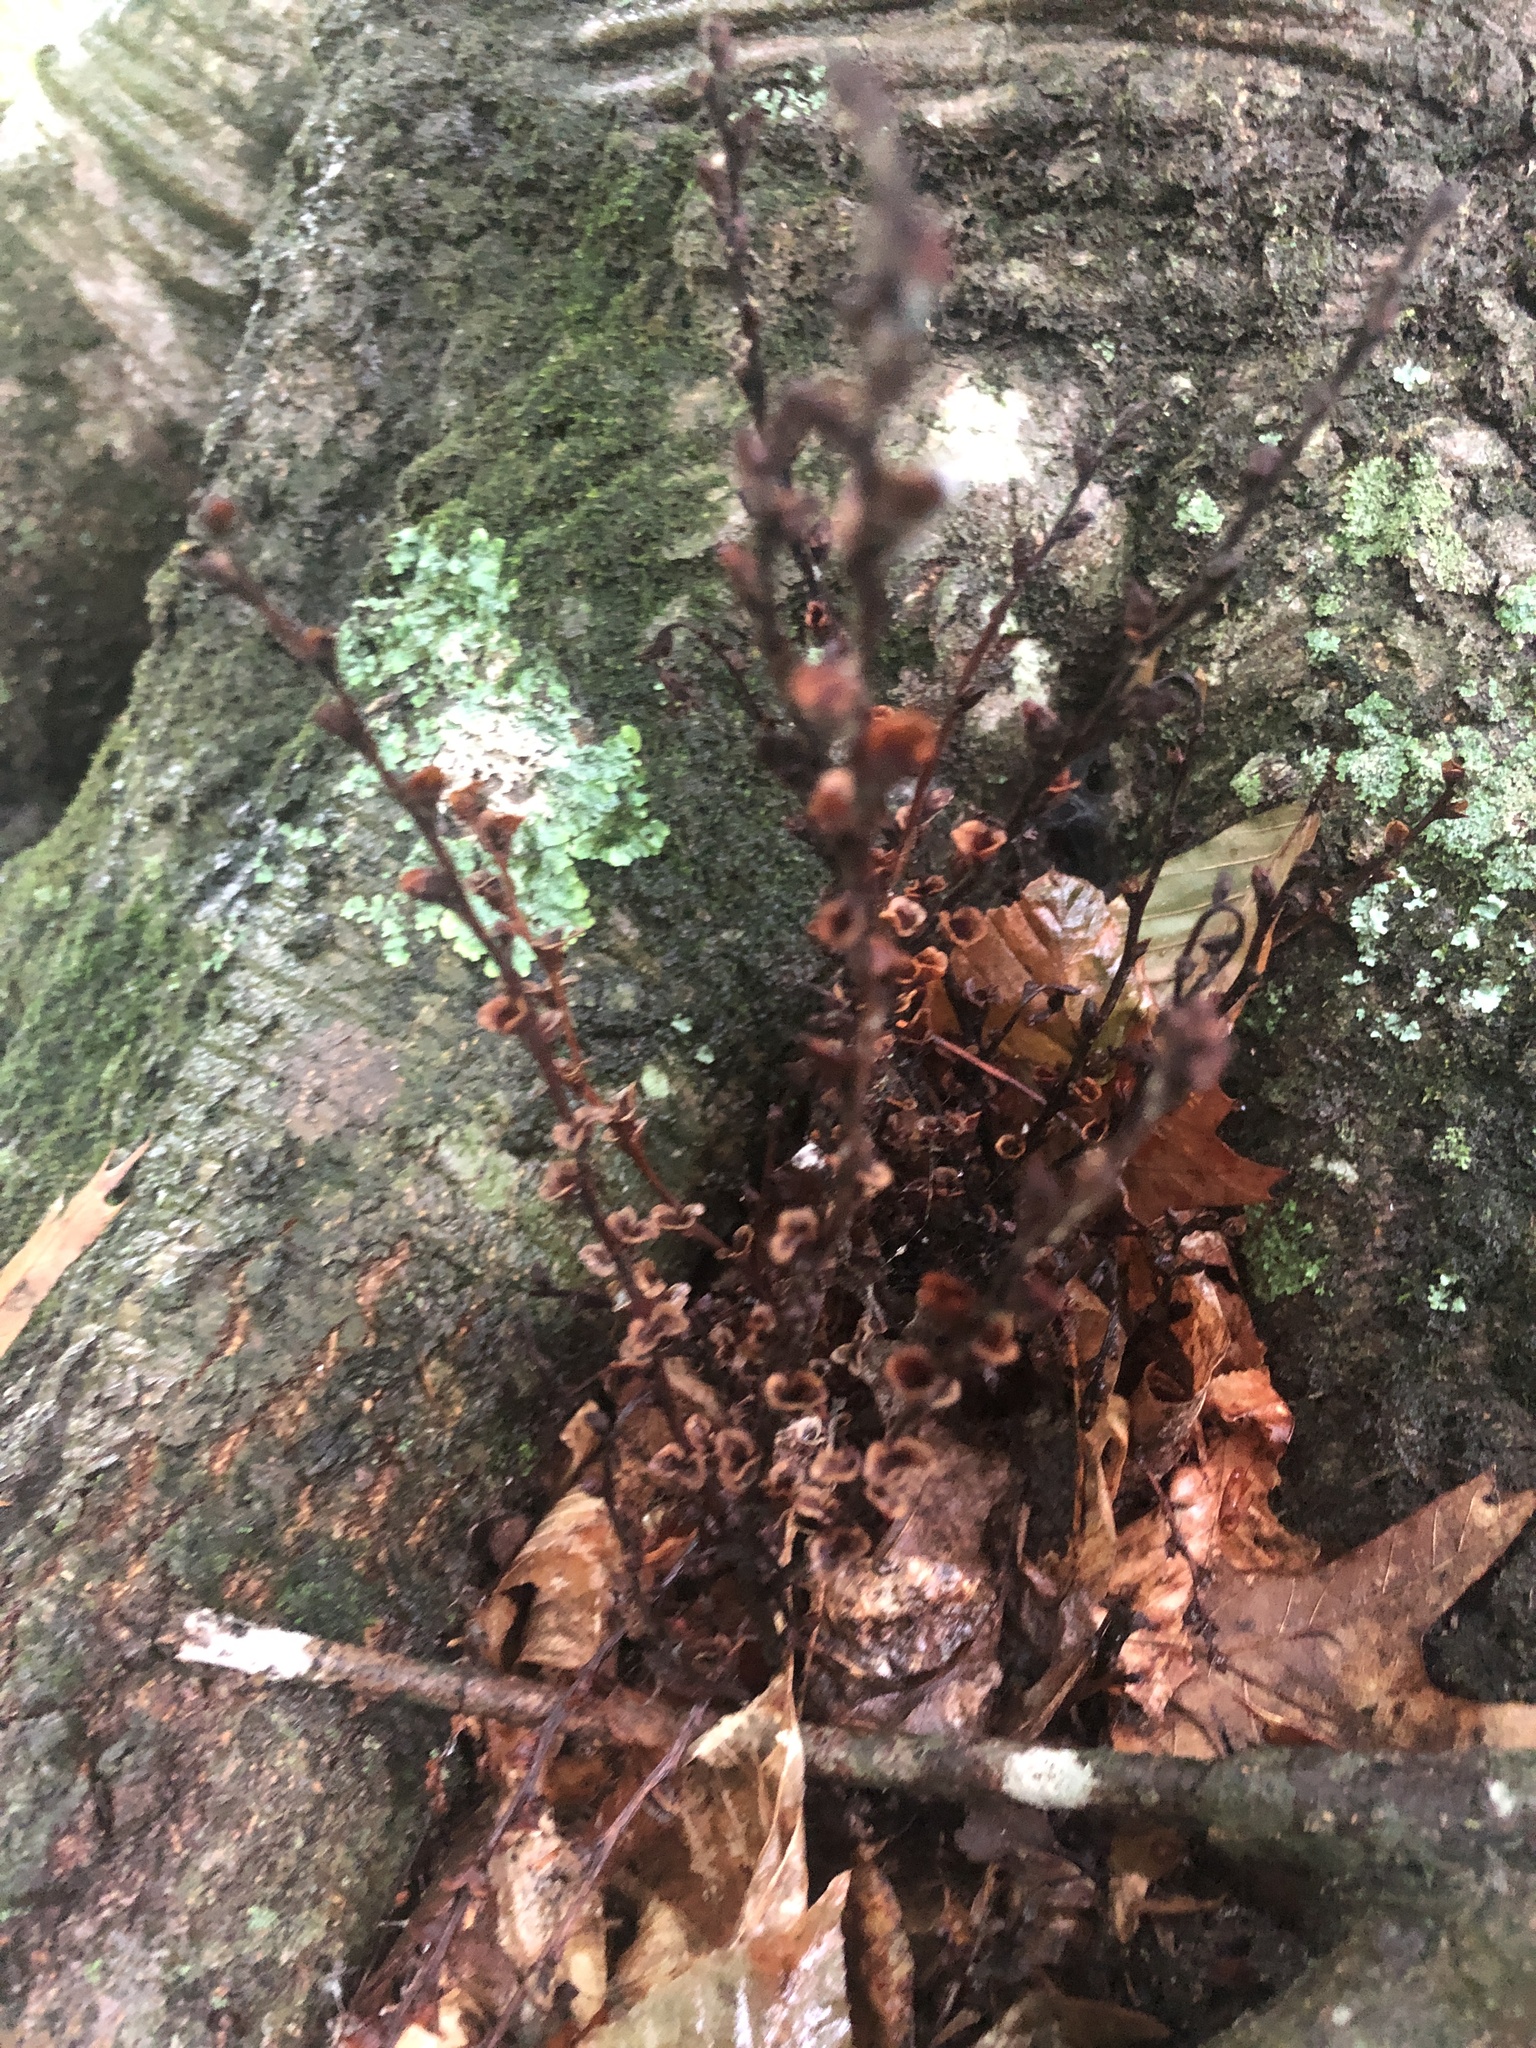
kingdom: Plantae
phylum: Tracheophyta
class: Magnoliopsida
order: Lamiales
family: Orobanchaceae
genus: Epifagus
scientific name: Epifagus virginiana
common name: Beechdrops
